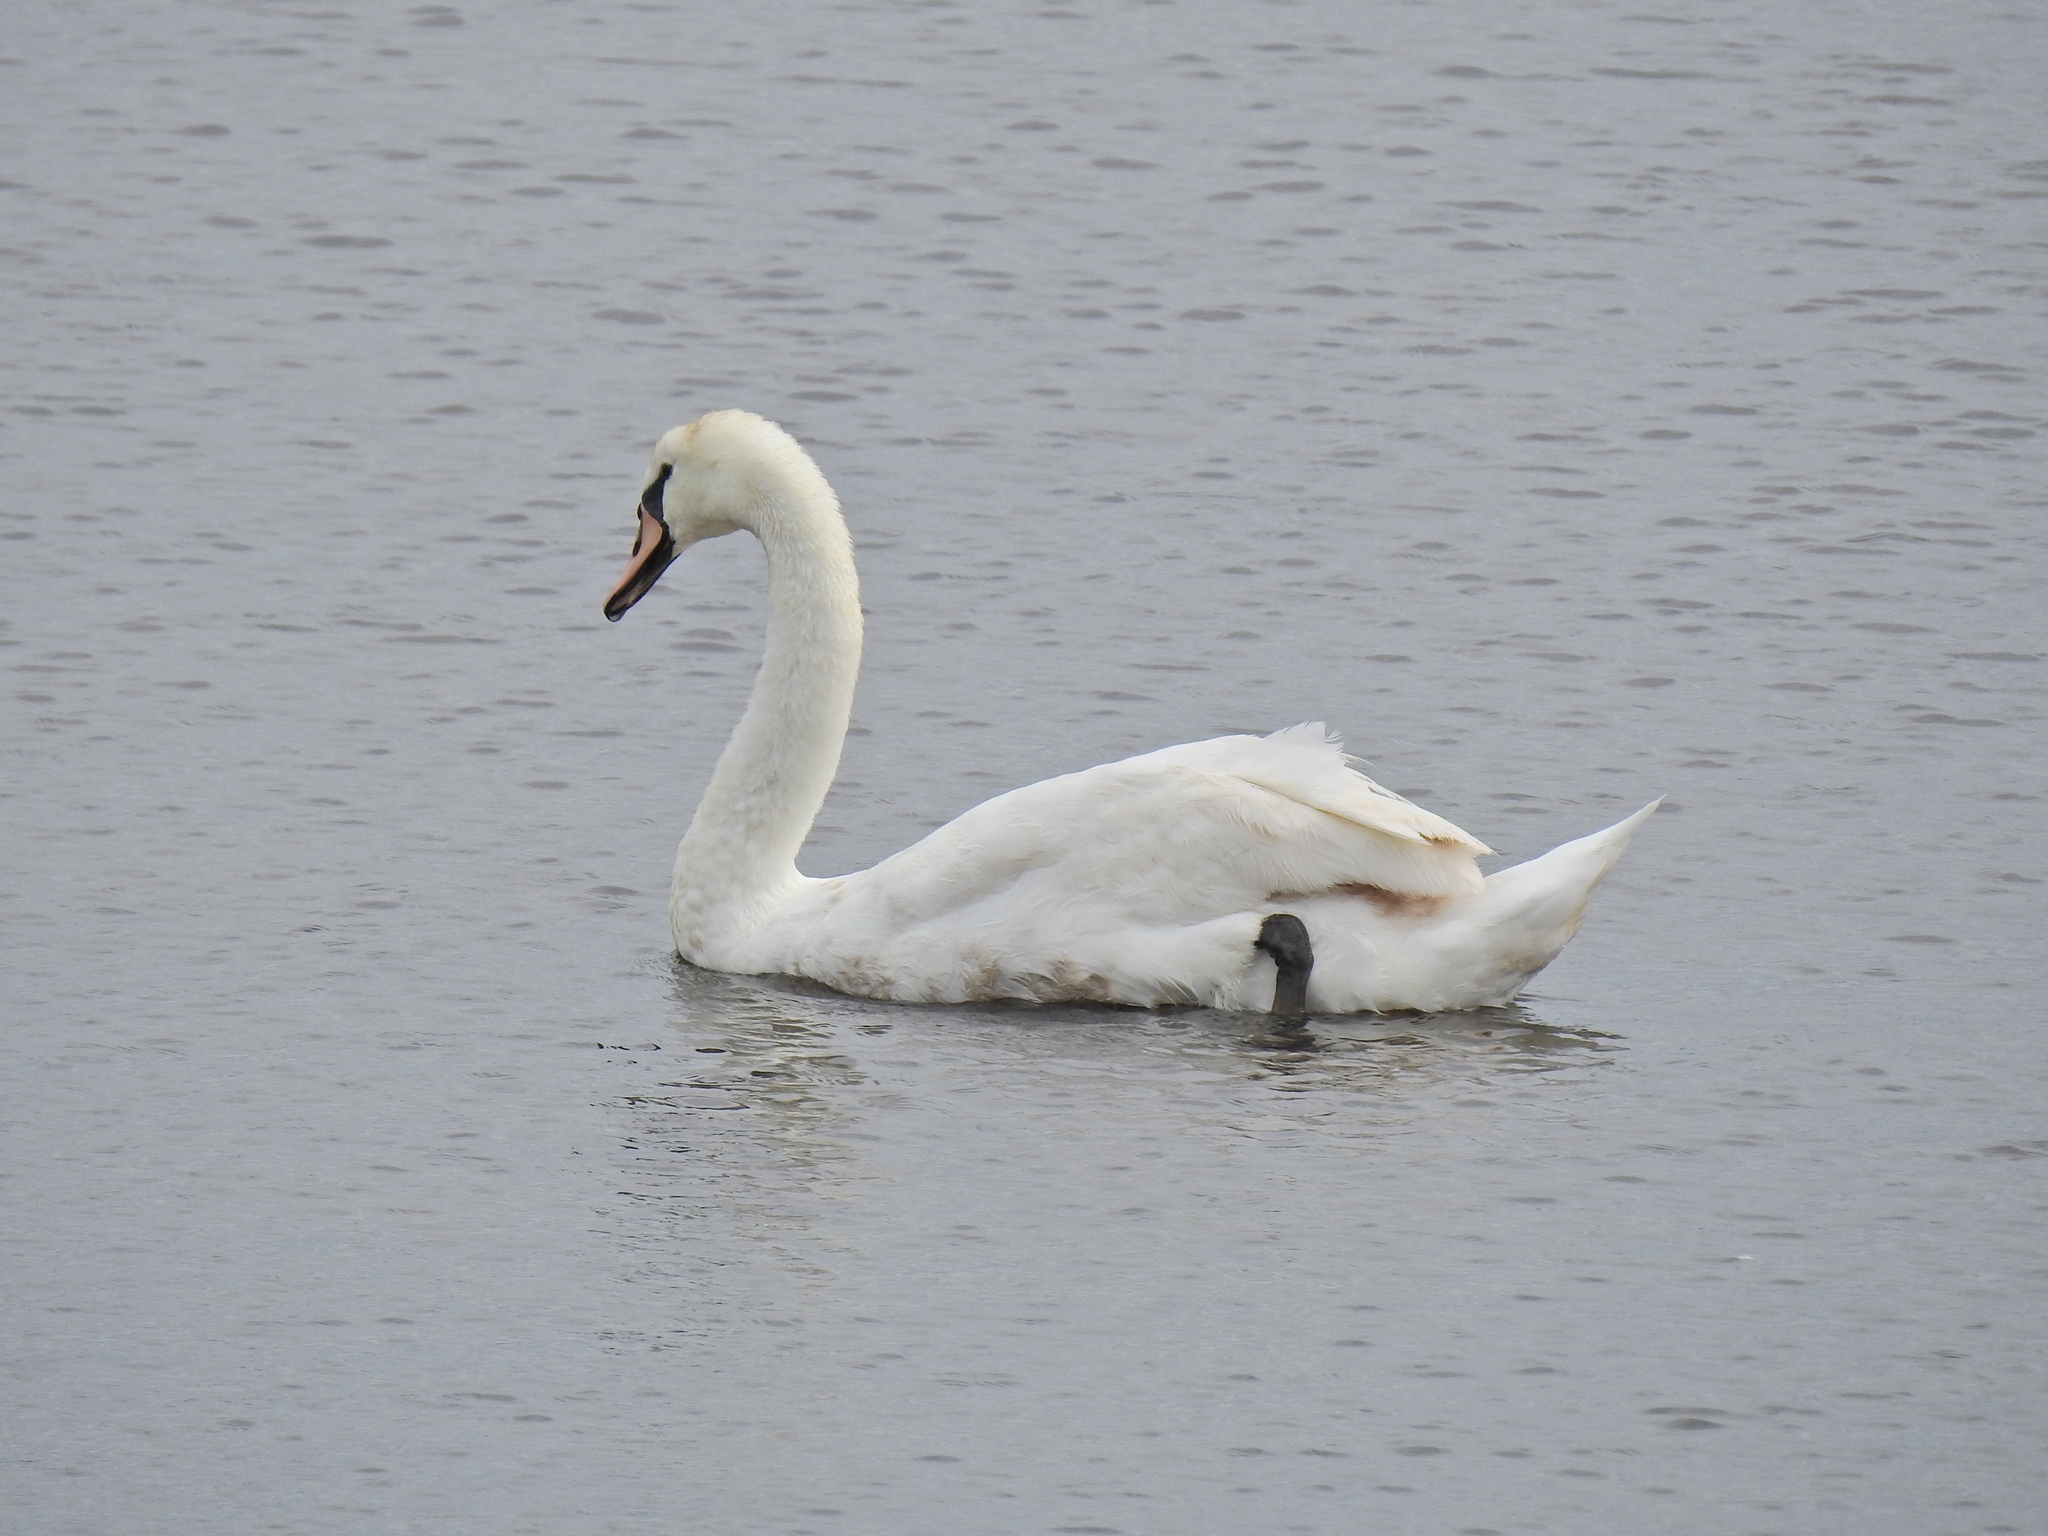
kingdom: Animalia
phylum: Chordata
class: Aves
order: Anseriformes
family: Anatidae
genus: Cygnus
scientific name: Cygnus olor
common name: Mute swan
